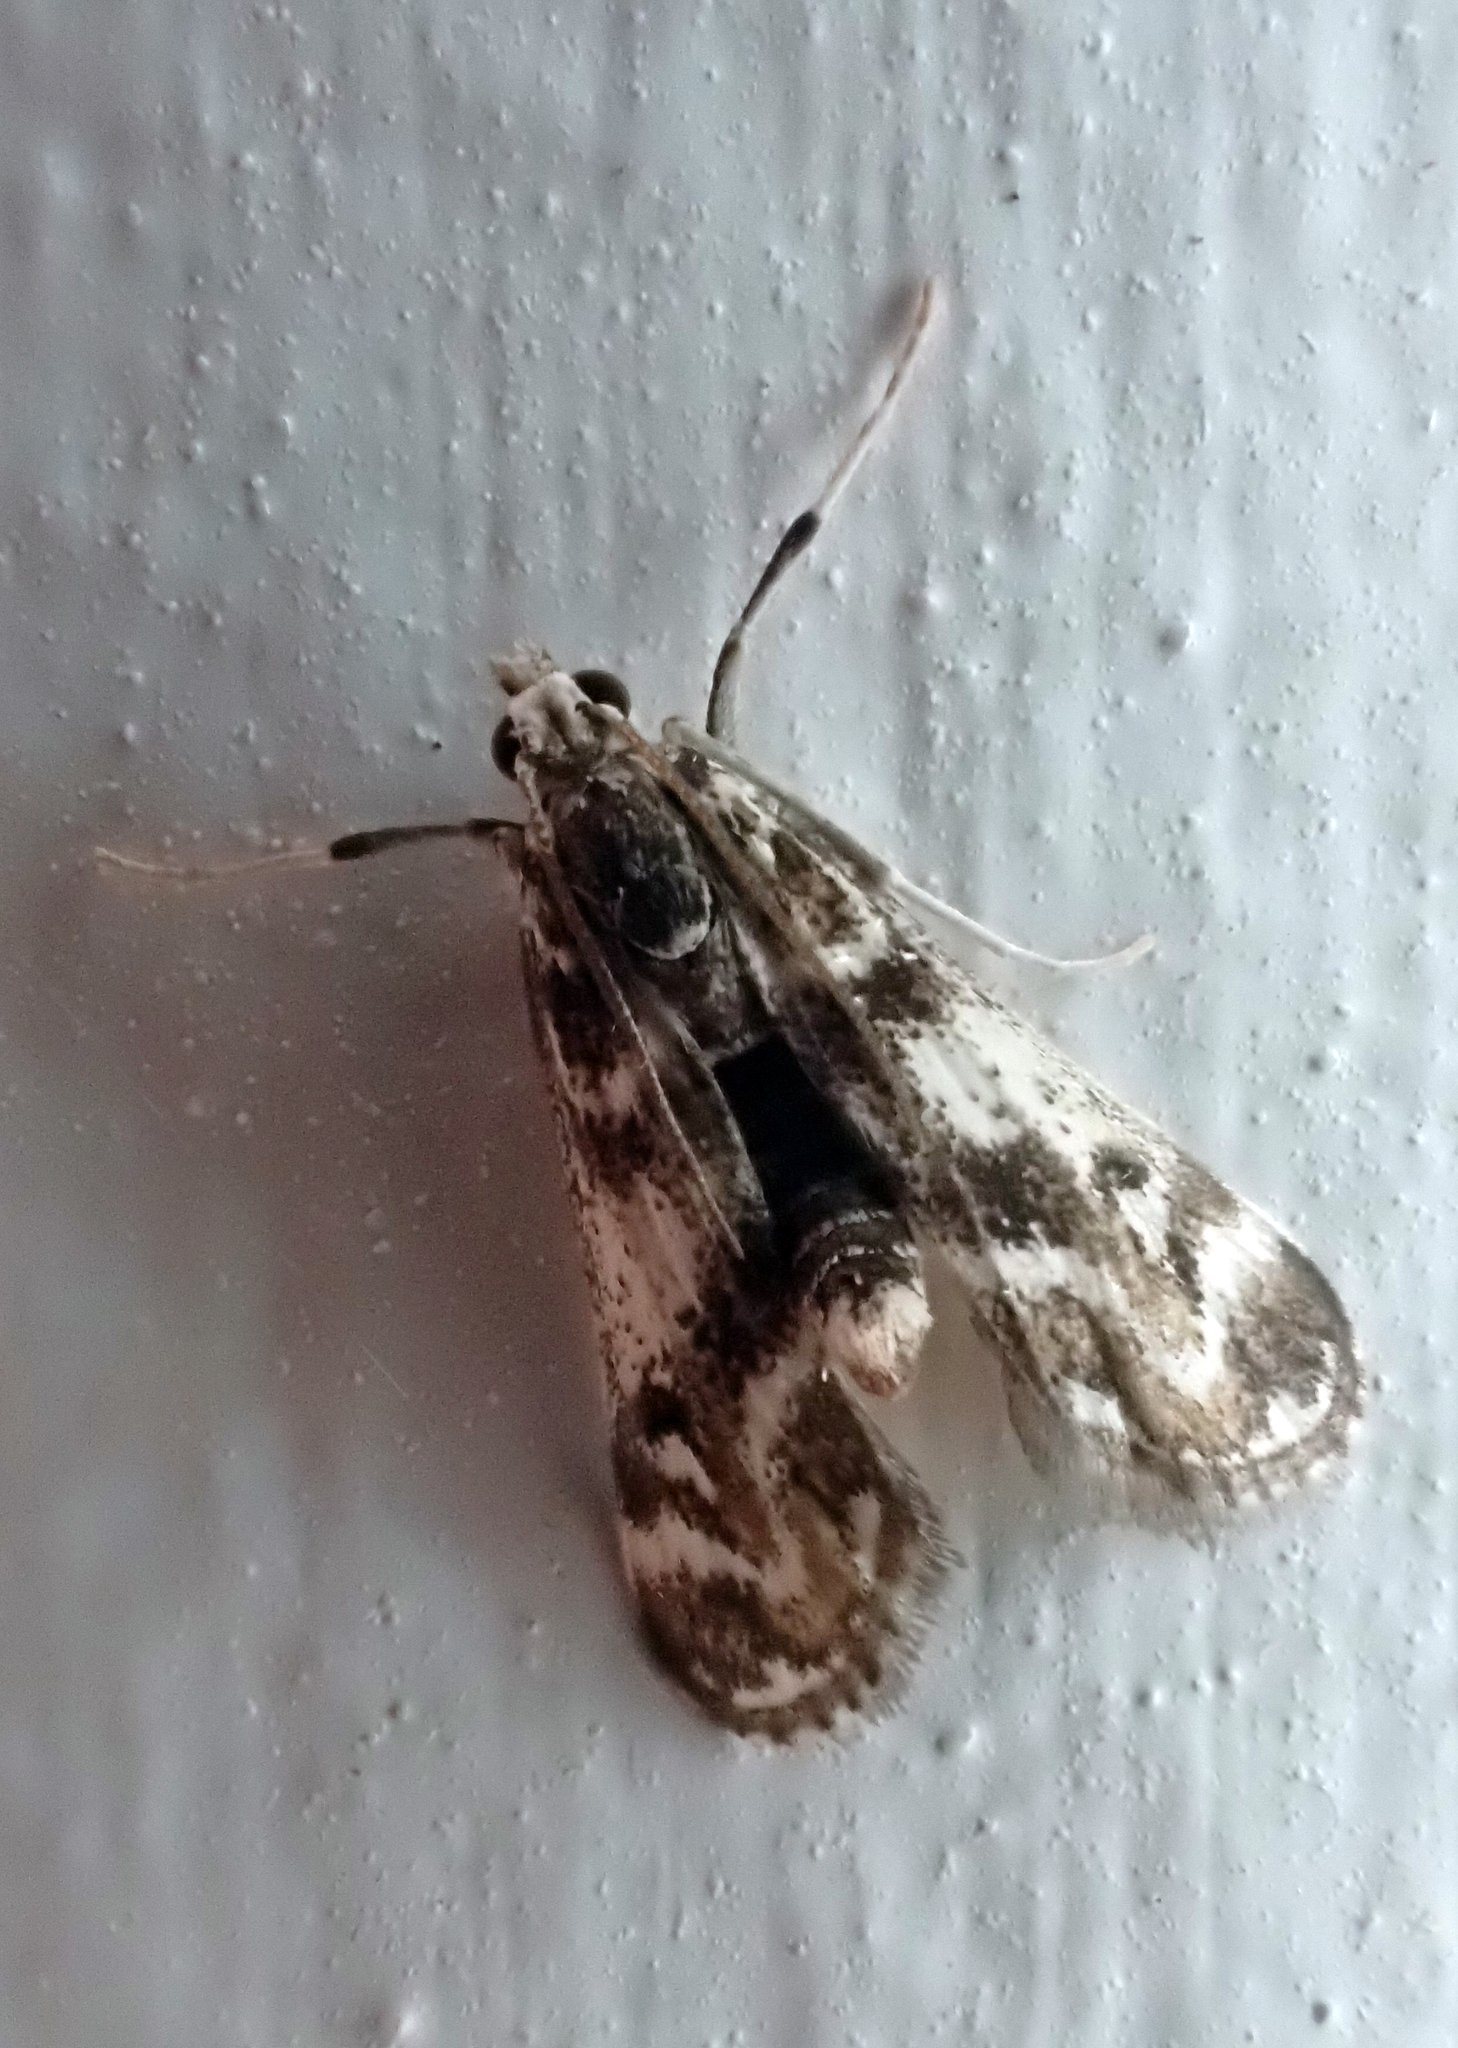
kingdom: Animalia
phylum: Arthropoda
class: Insecta
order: Lepidoptera
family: Crambidae
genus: Hygraula
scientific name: Hygraula nitens
